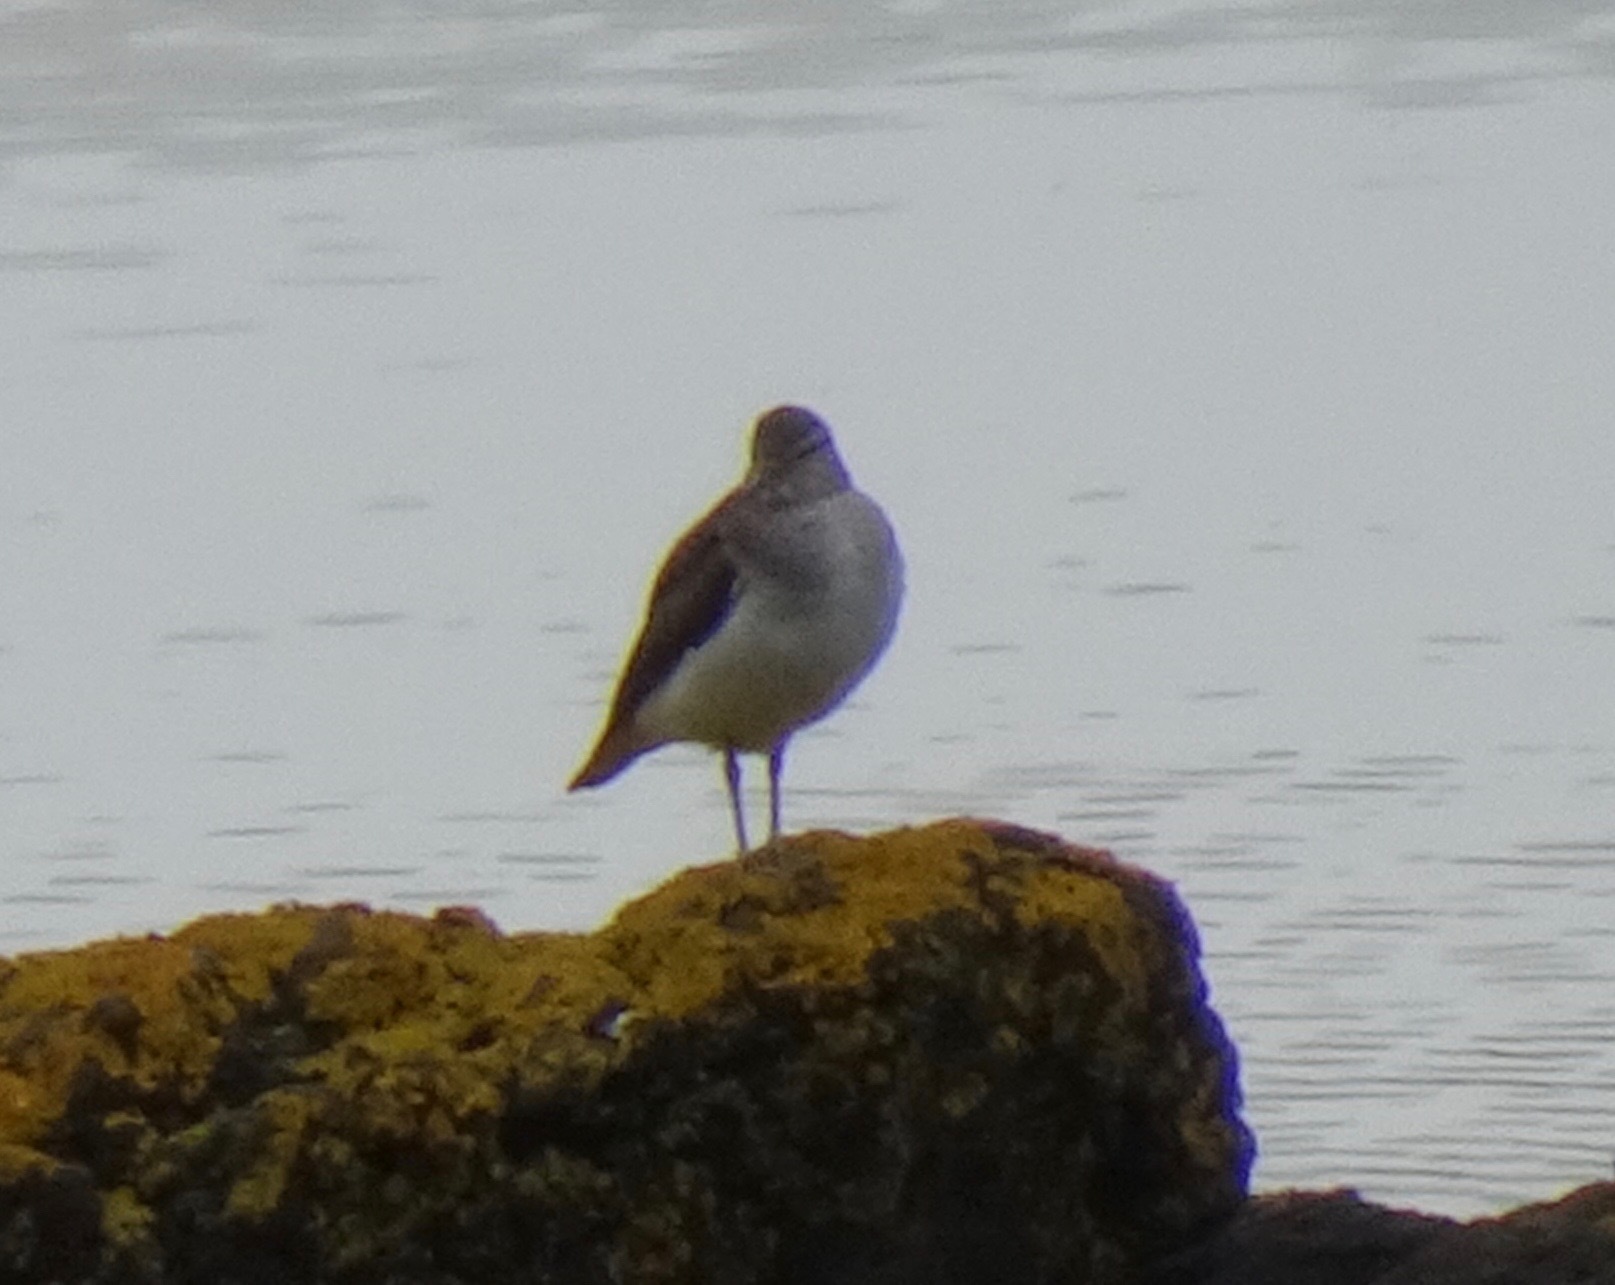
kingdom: Animalia
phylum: Chordata
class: Aves
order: Charadriiformes
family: Scolopacidae
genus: Actitis
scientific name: Actitis hypoleucos
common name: Common sandpiper
